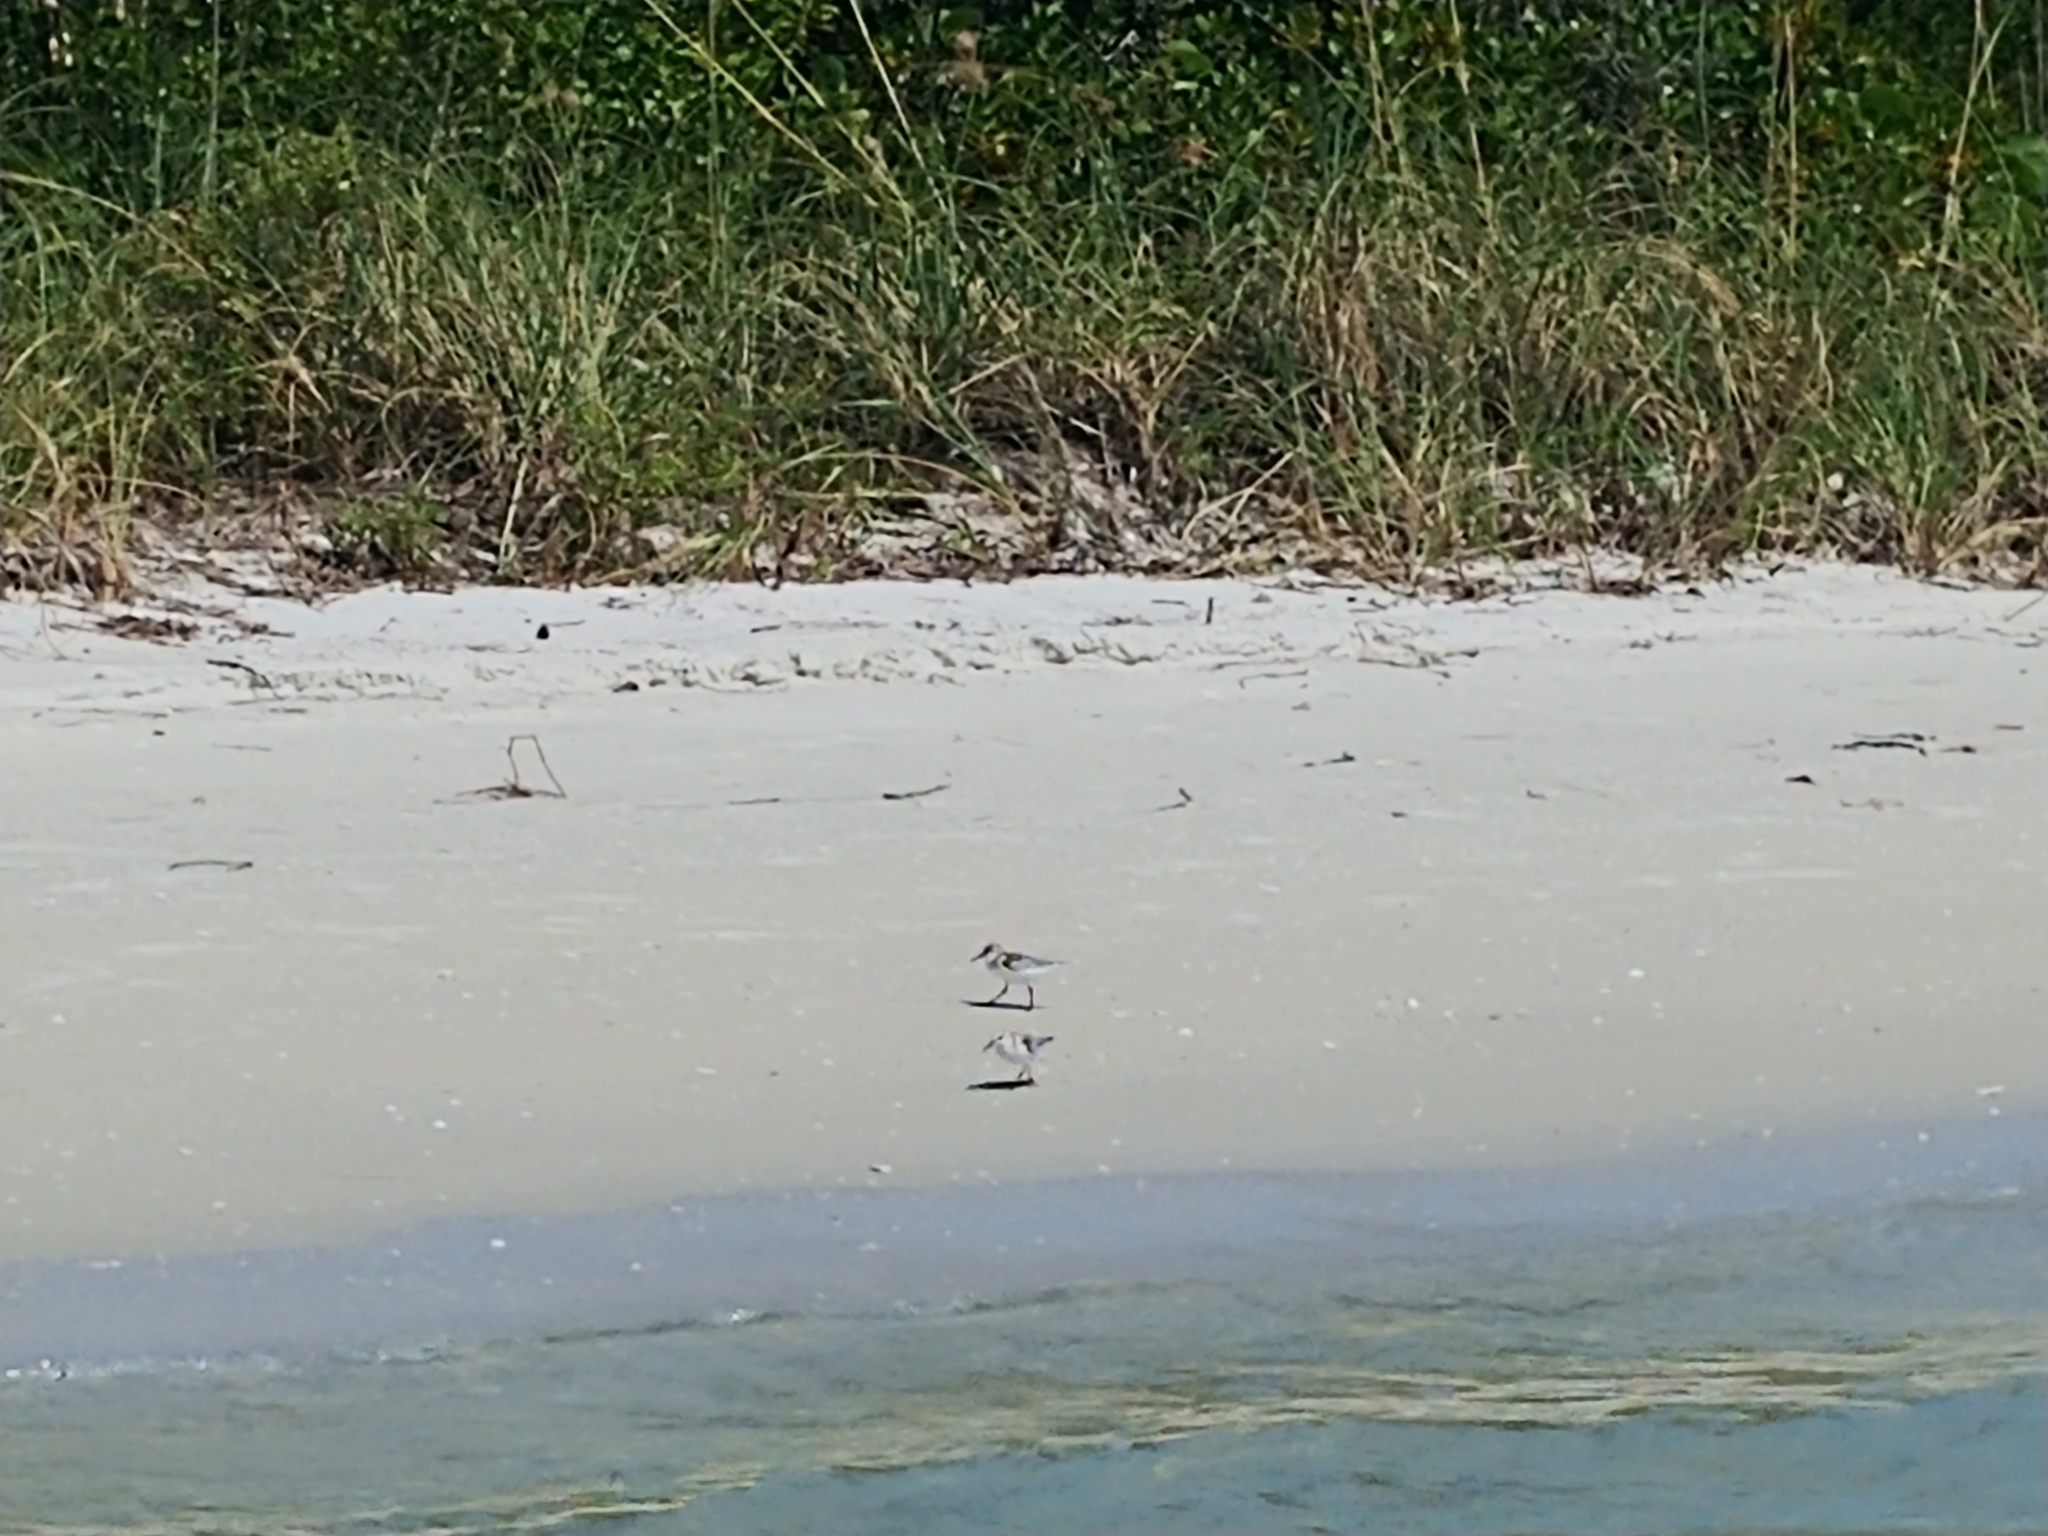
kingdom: Animalia
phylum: Chordata
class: Aves
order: Charadriiformes
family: Scolopacidae
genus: Calidris
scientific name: Calidris alba
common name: Sanderling
